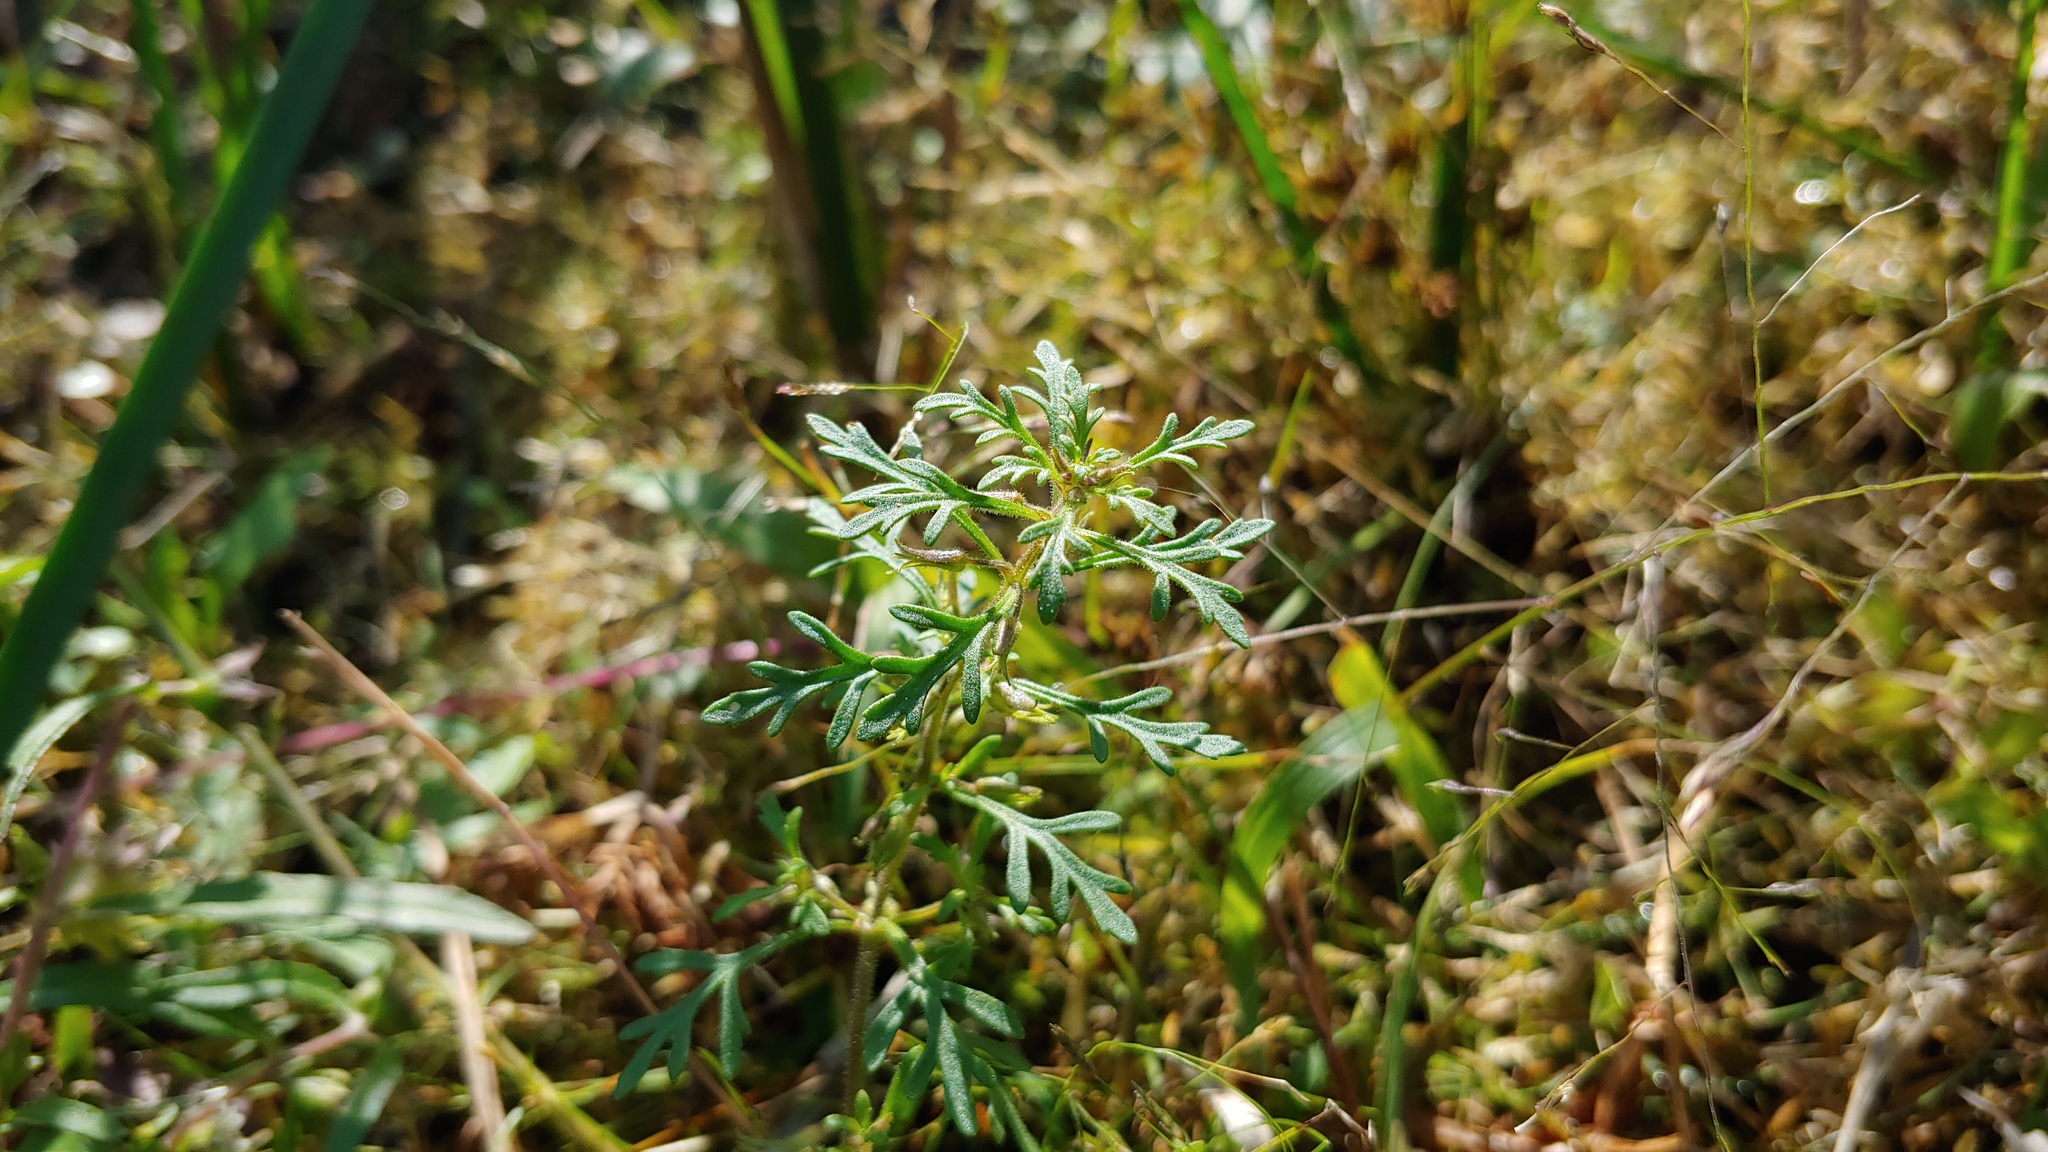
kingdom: Plantae
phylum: Tracheophyta
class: Magnoliopsida
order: Lamiales
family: Plantaginaceae
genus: Leucospora
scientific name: Leucospora multifida
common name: Narrow-leaf paleseed
